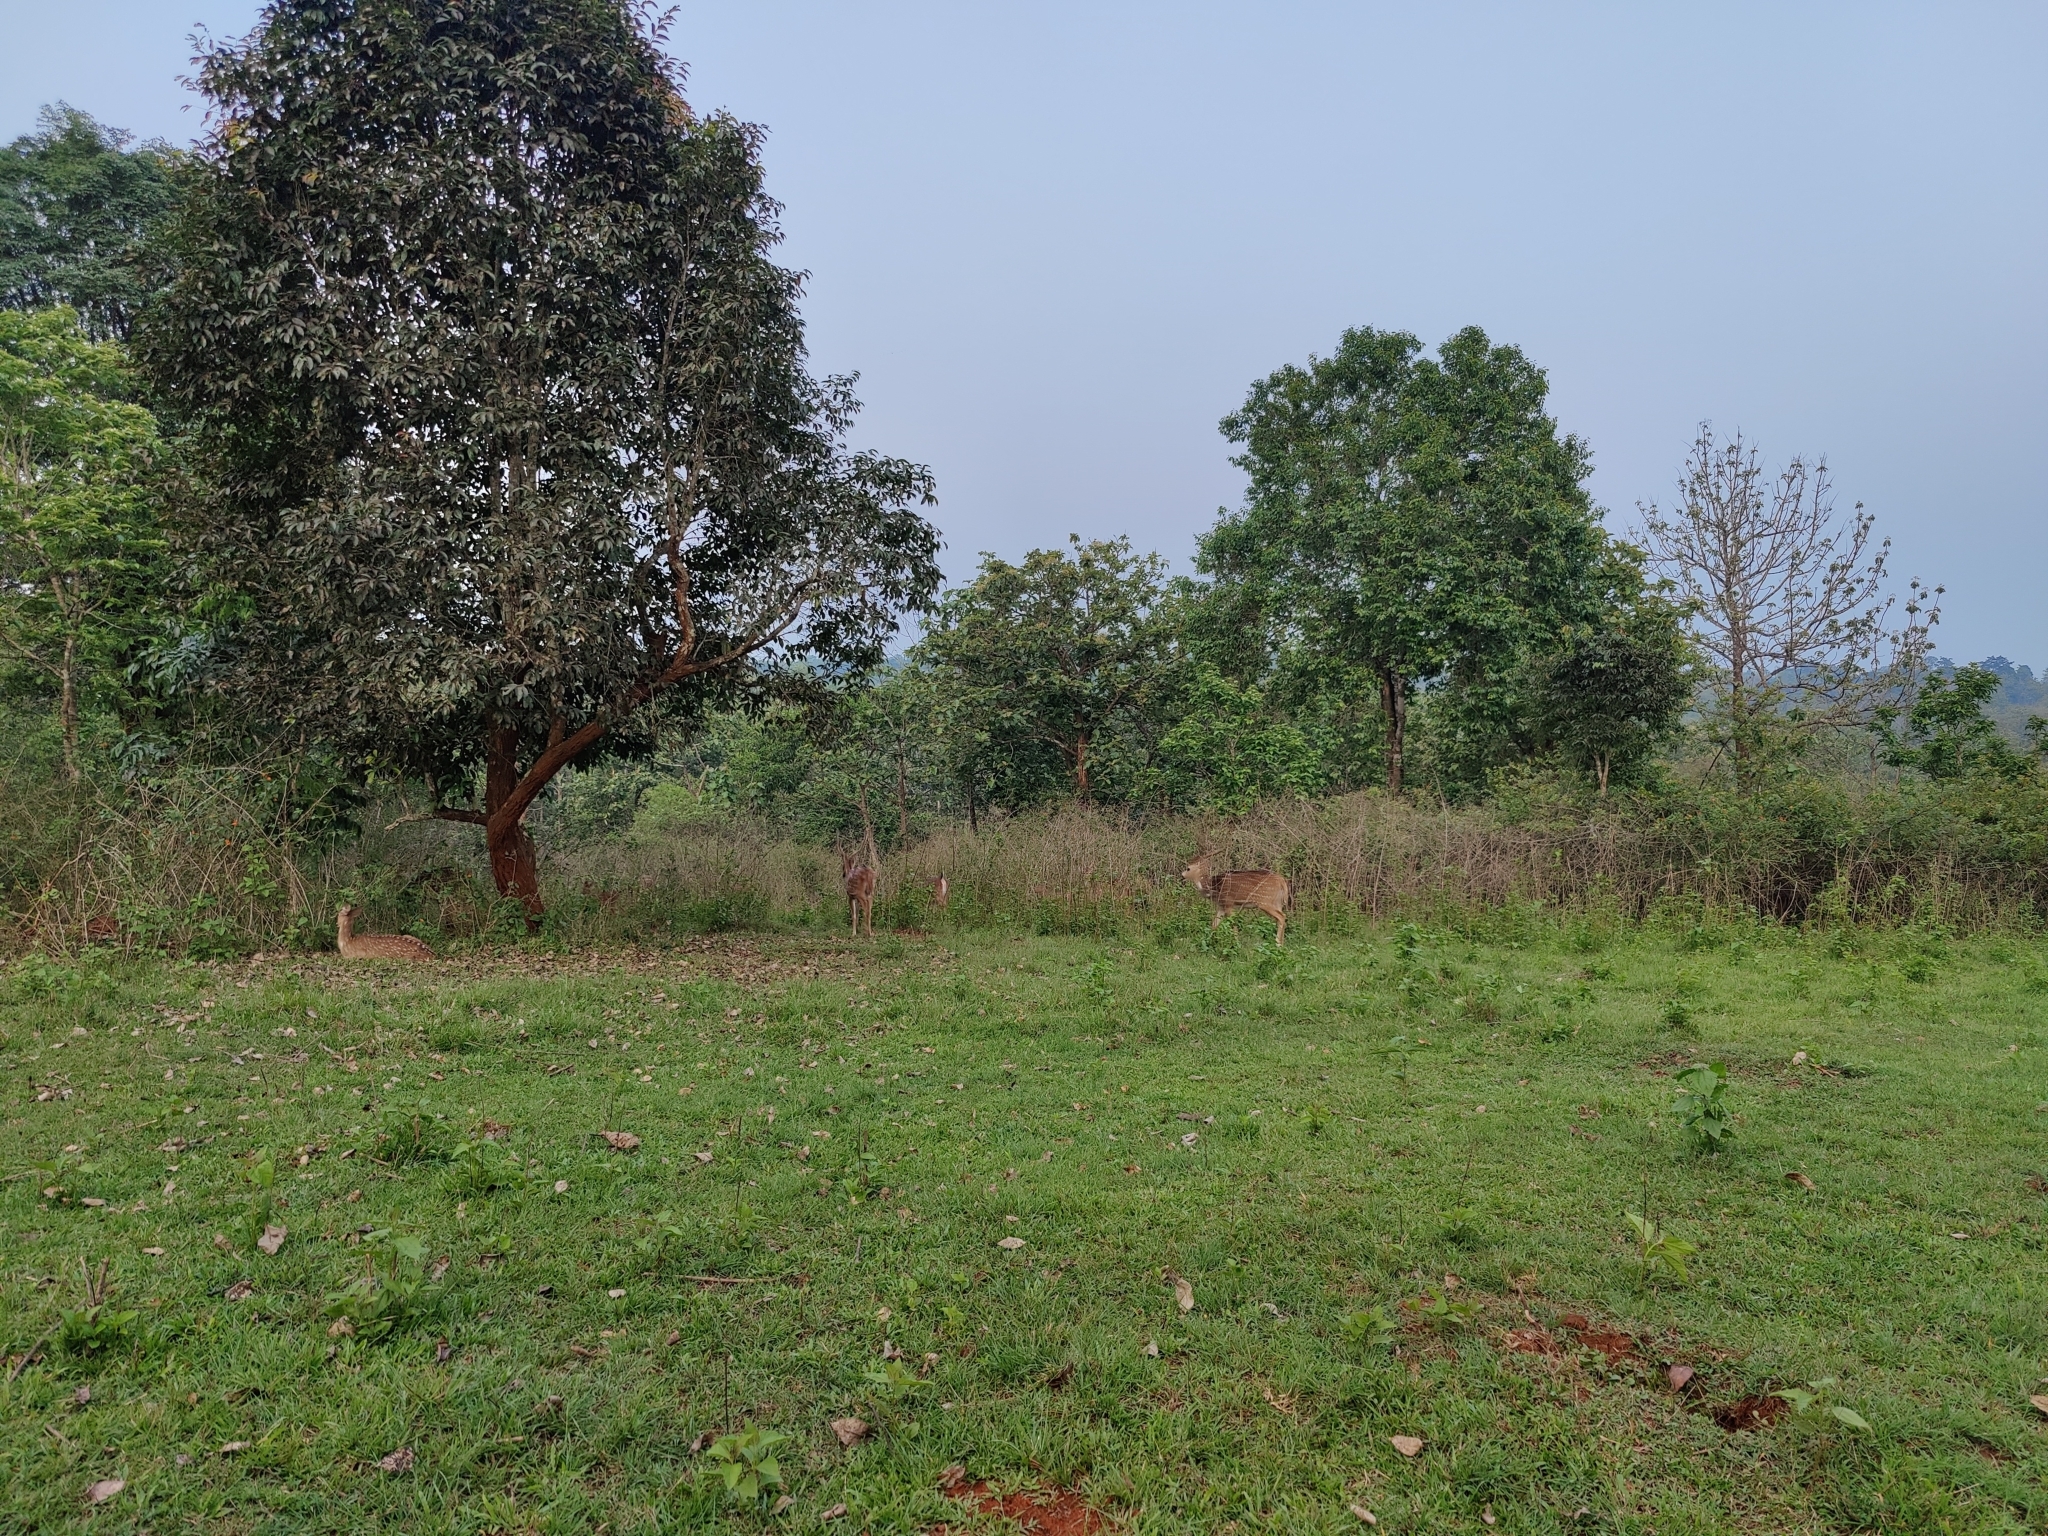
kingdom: Animalia
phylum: Chordata
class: Mammalia
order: Artiodactyla
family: Cervidae
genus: Axis
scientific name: Axis axis
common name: Chital
